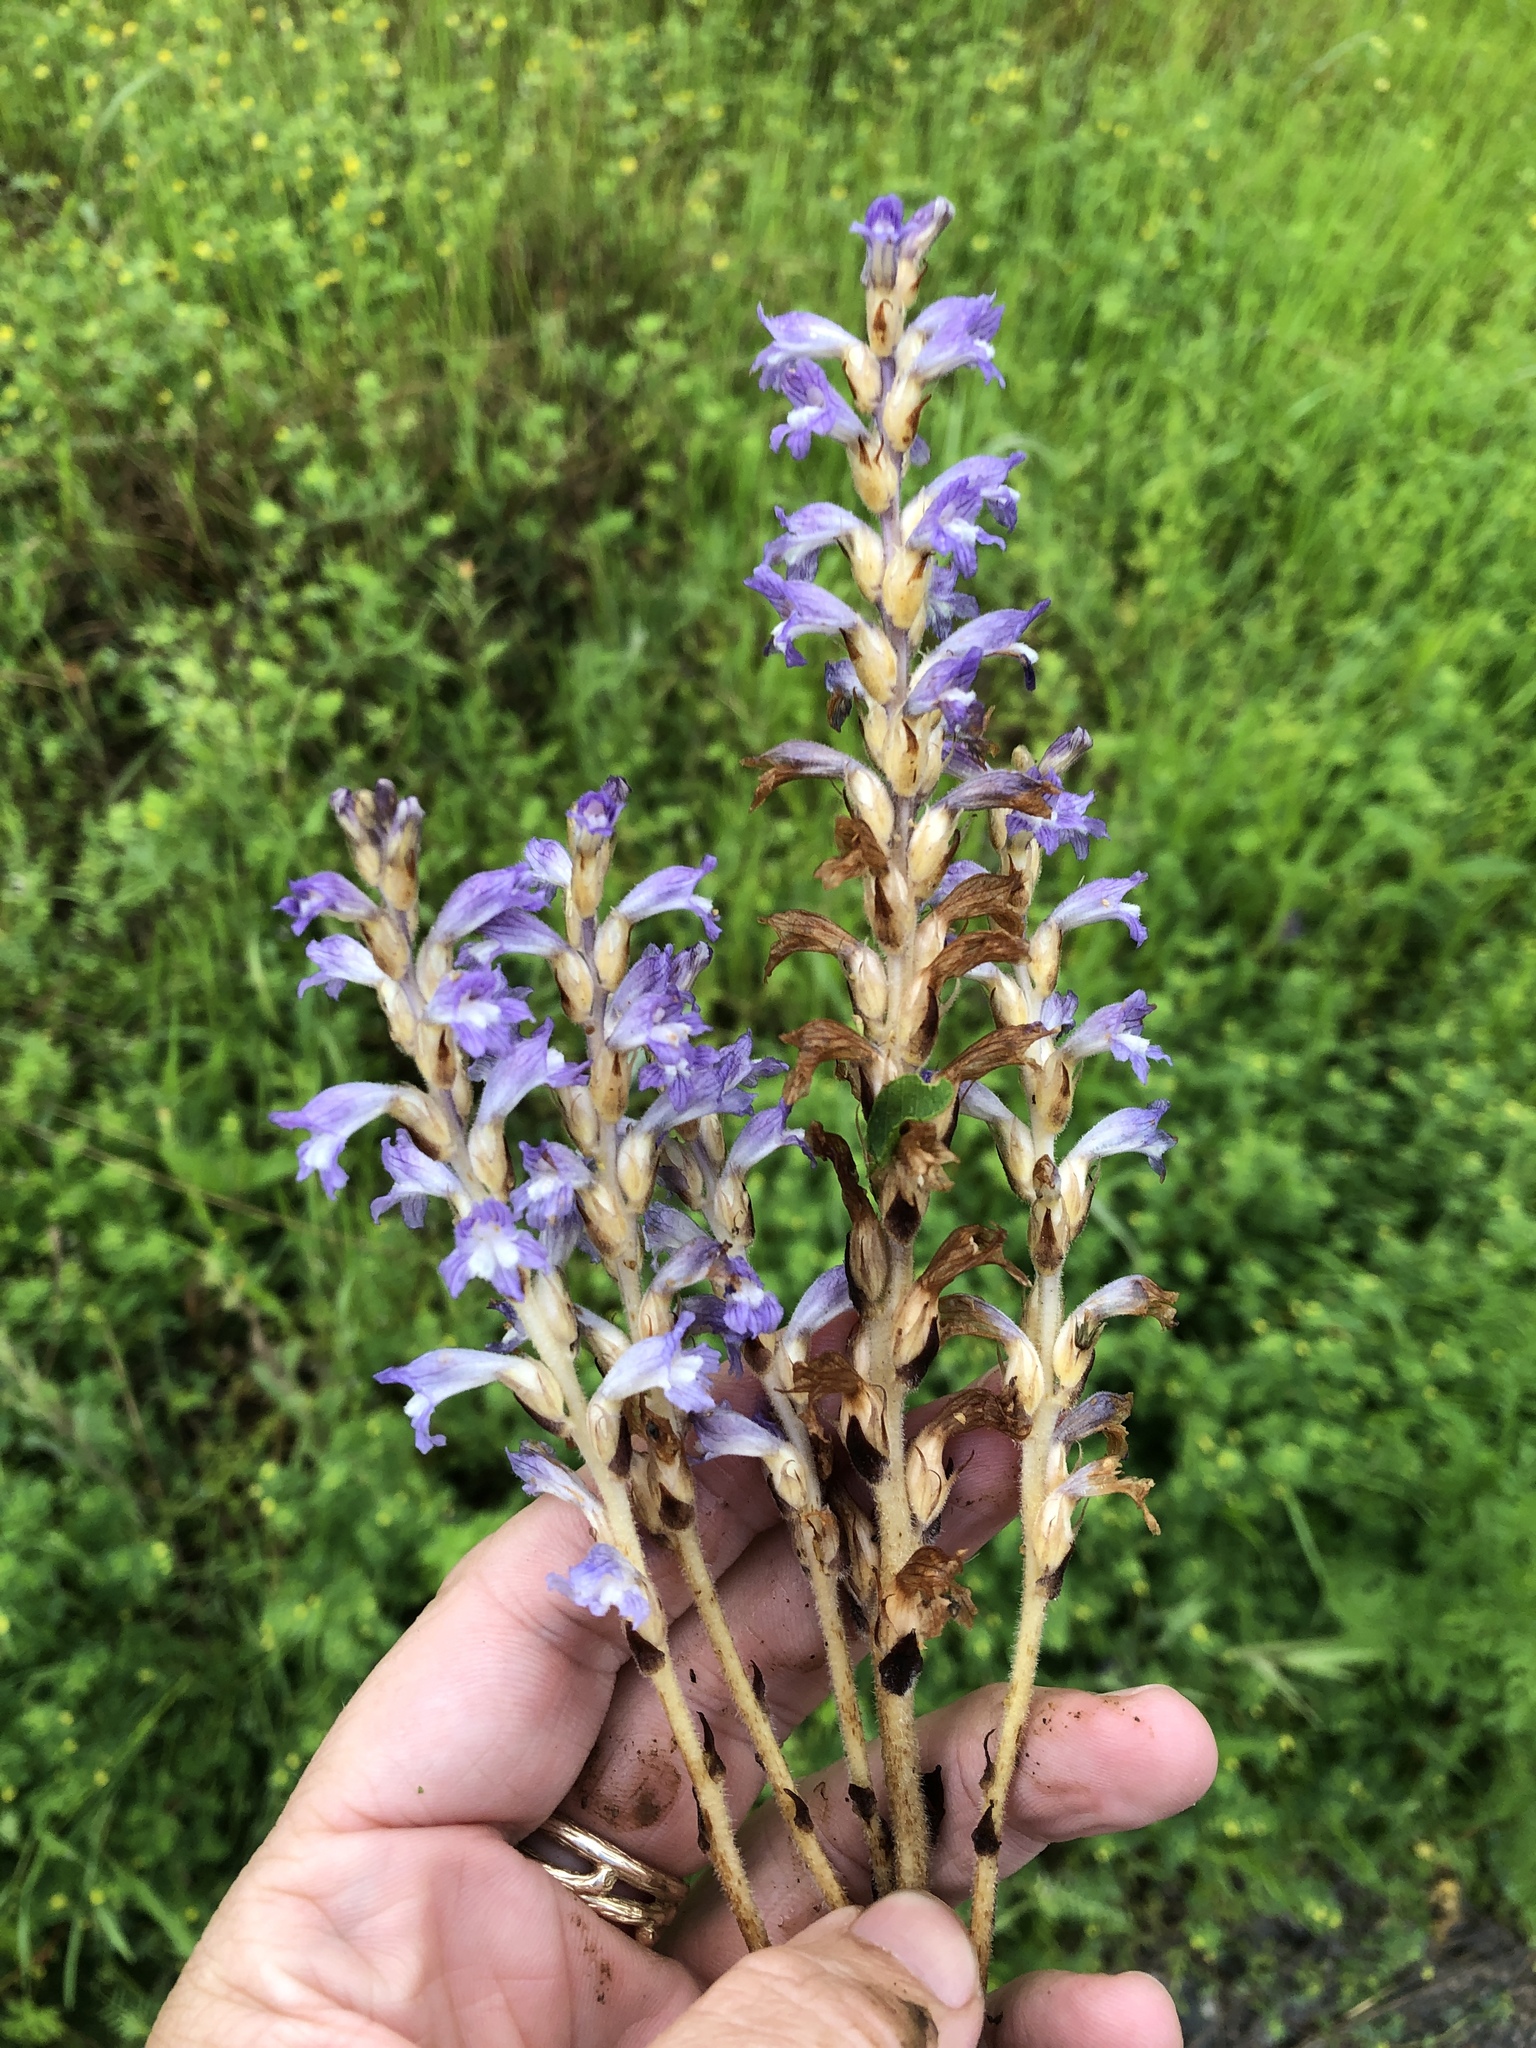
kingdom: Plantae
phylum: Tracheophyta
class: Magnoliopsida
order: Lamiales
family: Orobanchaceae
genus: Phelipanche
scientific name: Phelipanche mutelii
